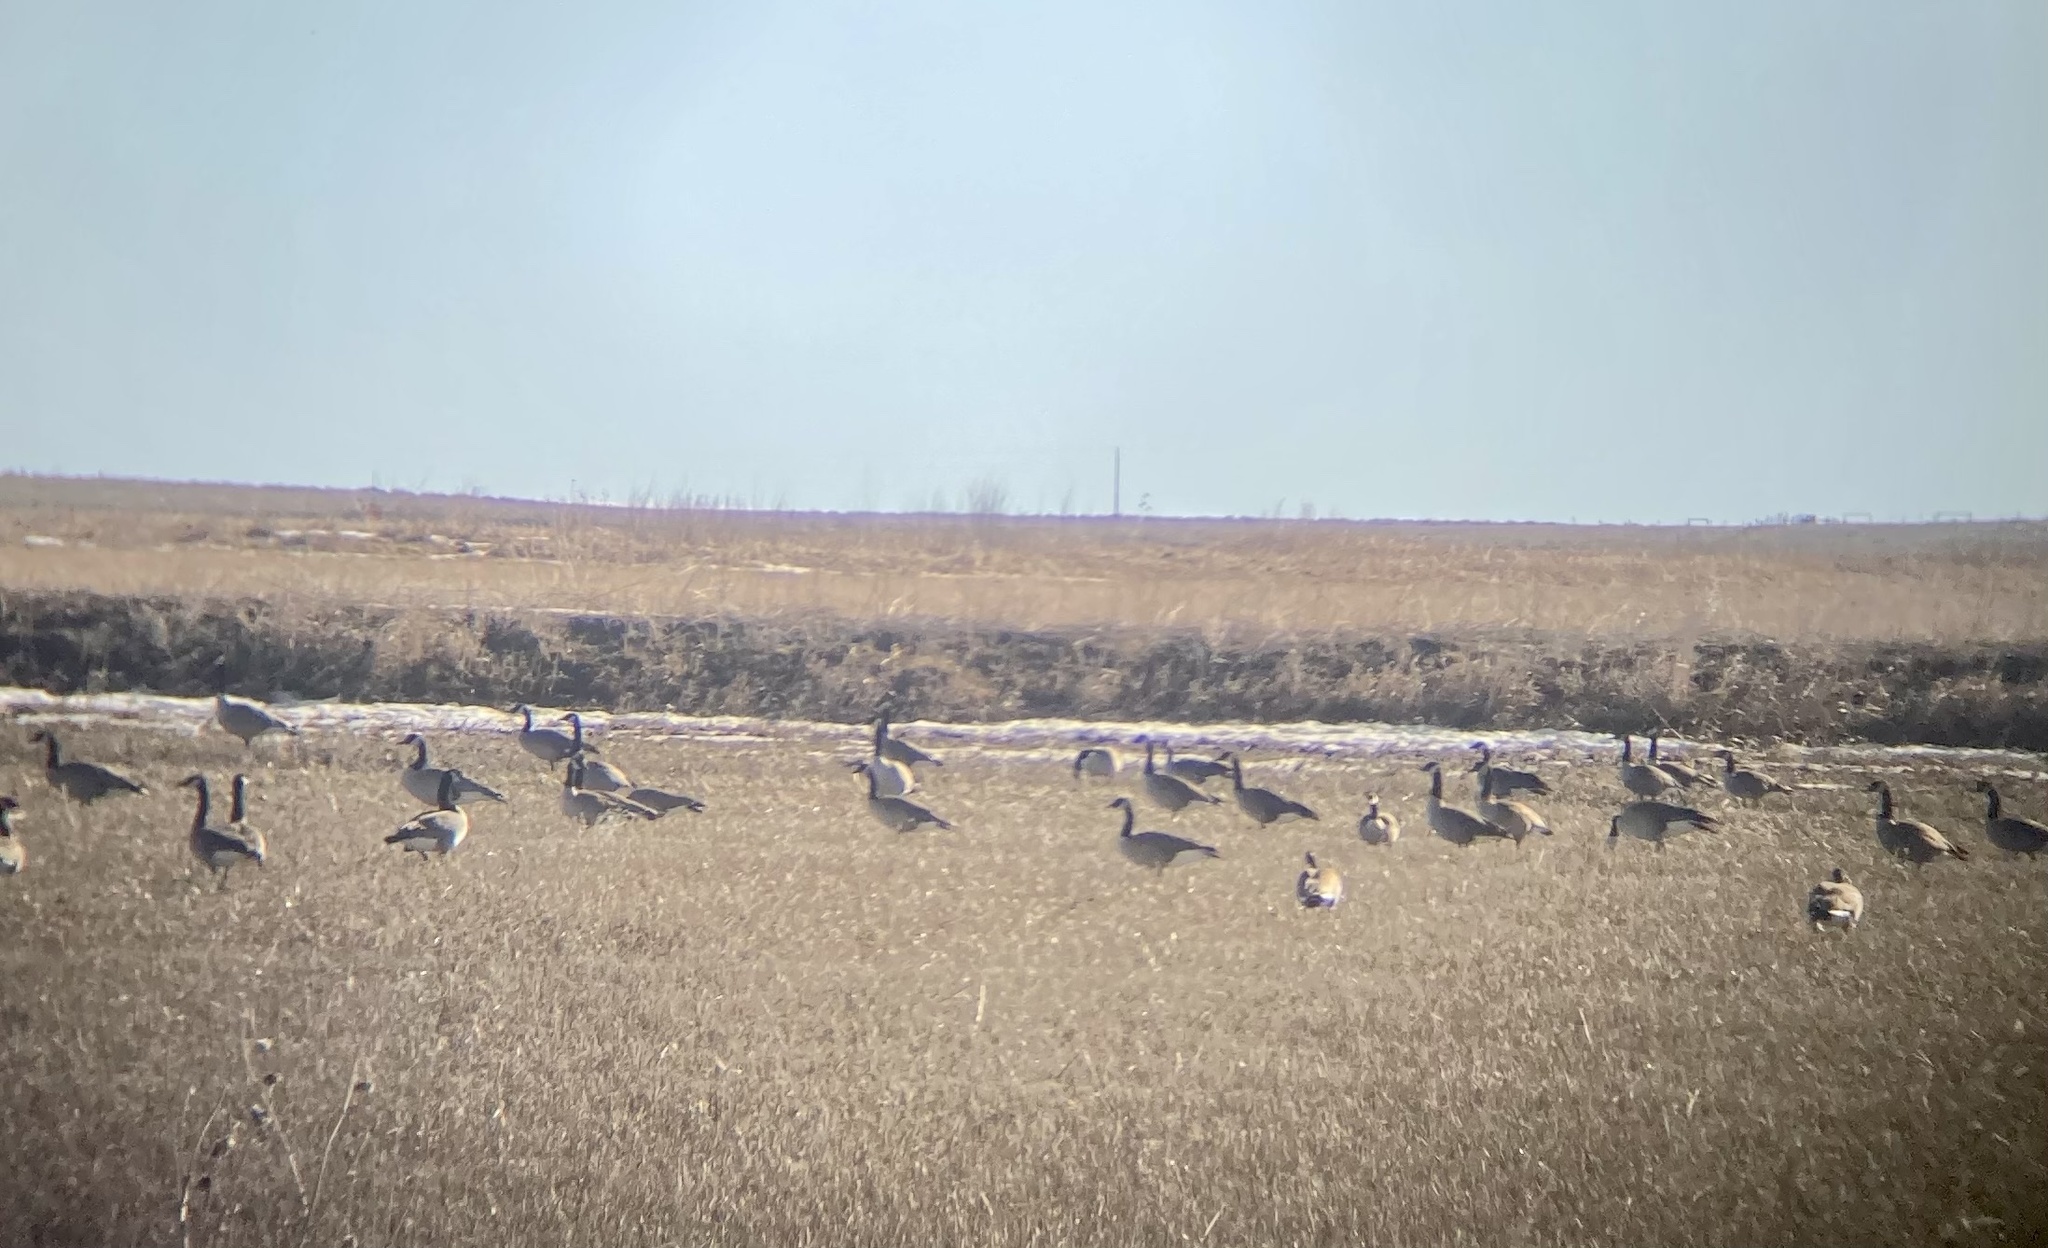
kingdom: Animalia
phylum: Chordata
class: Aves
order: Anseriformes
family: Anatidae
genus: Branta
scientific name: Branta canadensis
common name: Canada goose
